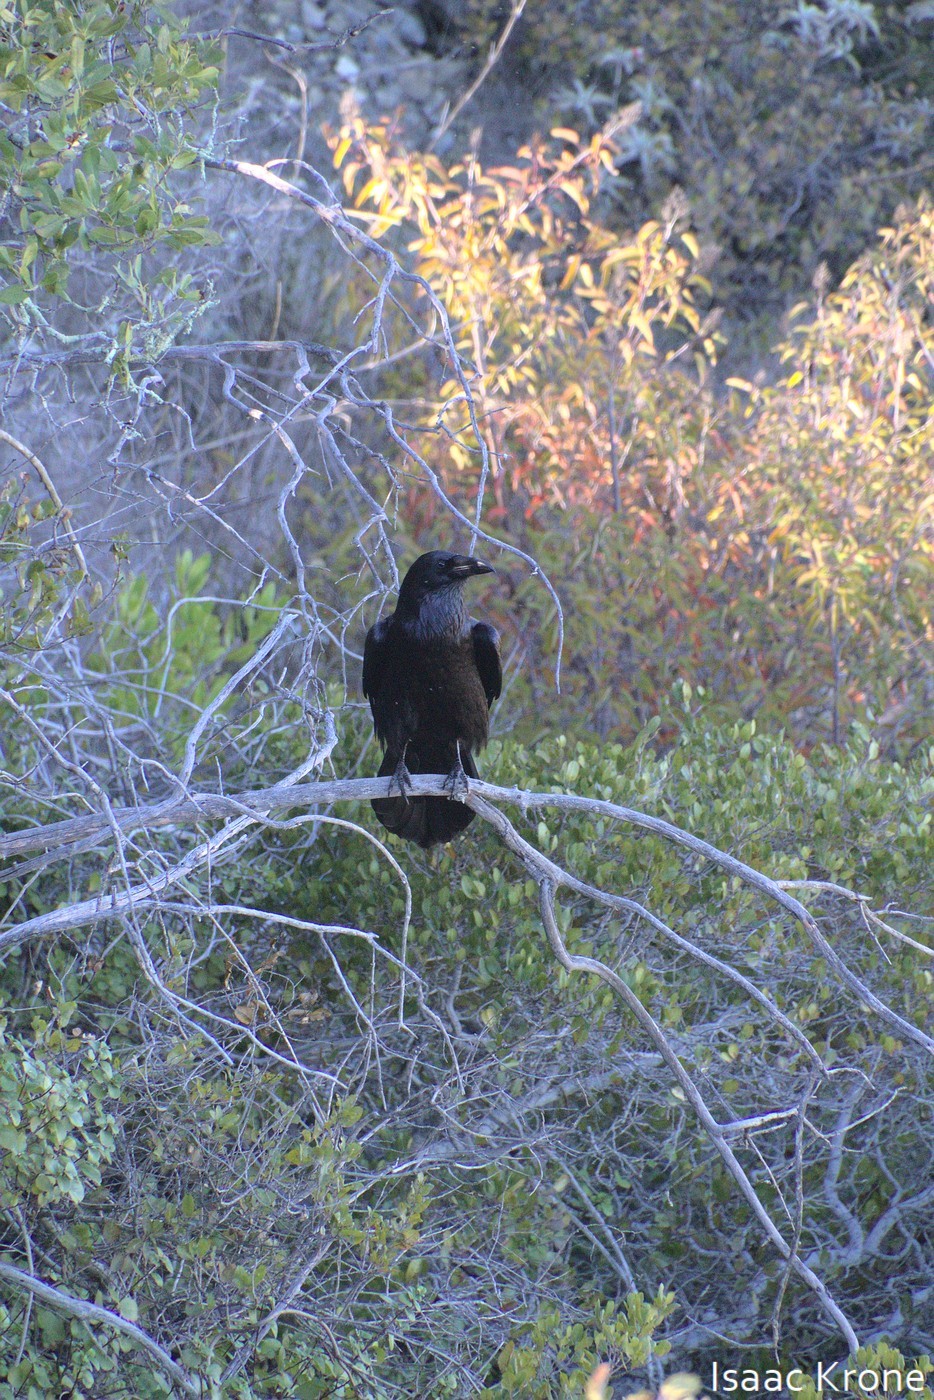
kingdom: Animalia
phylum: Chordata
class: Aves
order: Passeriformes
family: Corvidae
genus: Corvus
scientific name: Corvus corax
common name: Common raven
